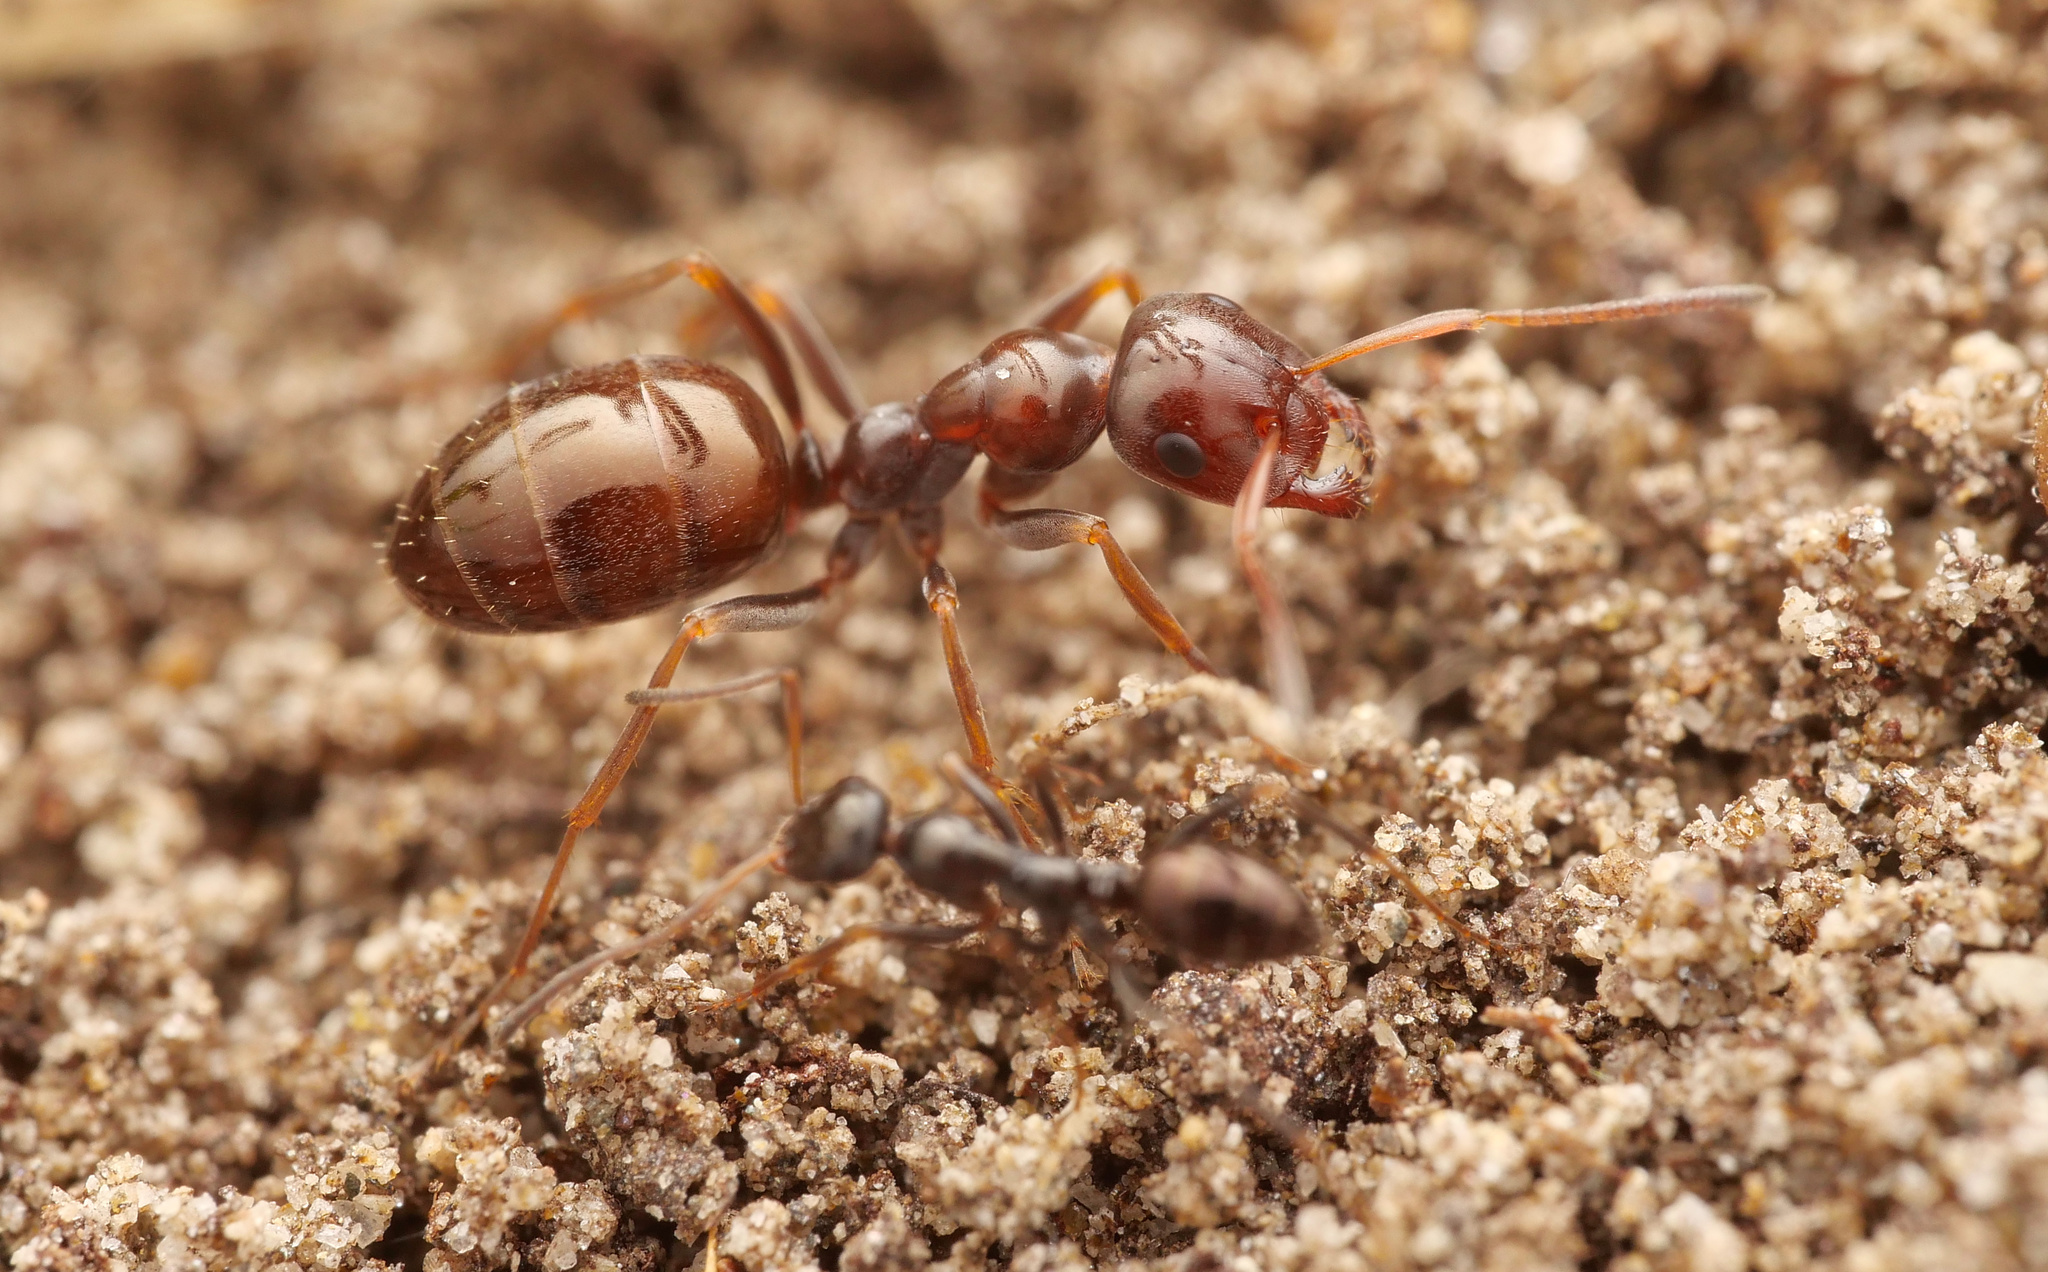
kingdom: Animalia
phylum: Arthropoda
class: Insecta
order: Hymenoptera
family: Formicidae
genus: Proformica
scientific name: Proformica striaticeps
